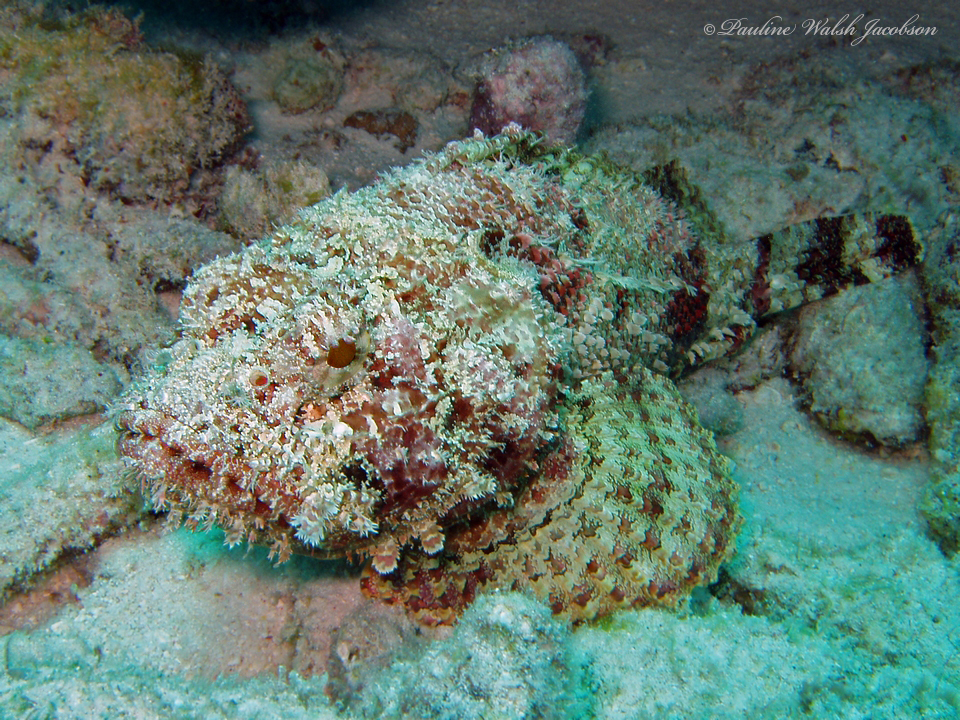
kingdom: Animalia
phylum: Chordata
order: Scorpaeniformes
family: Scorpaenidae
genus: Scorpaena
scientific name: Scorpaena plumieri
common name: Spotted scorpionfish
